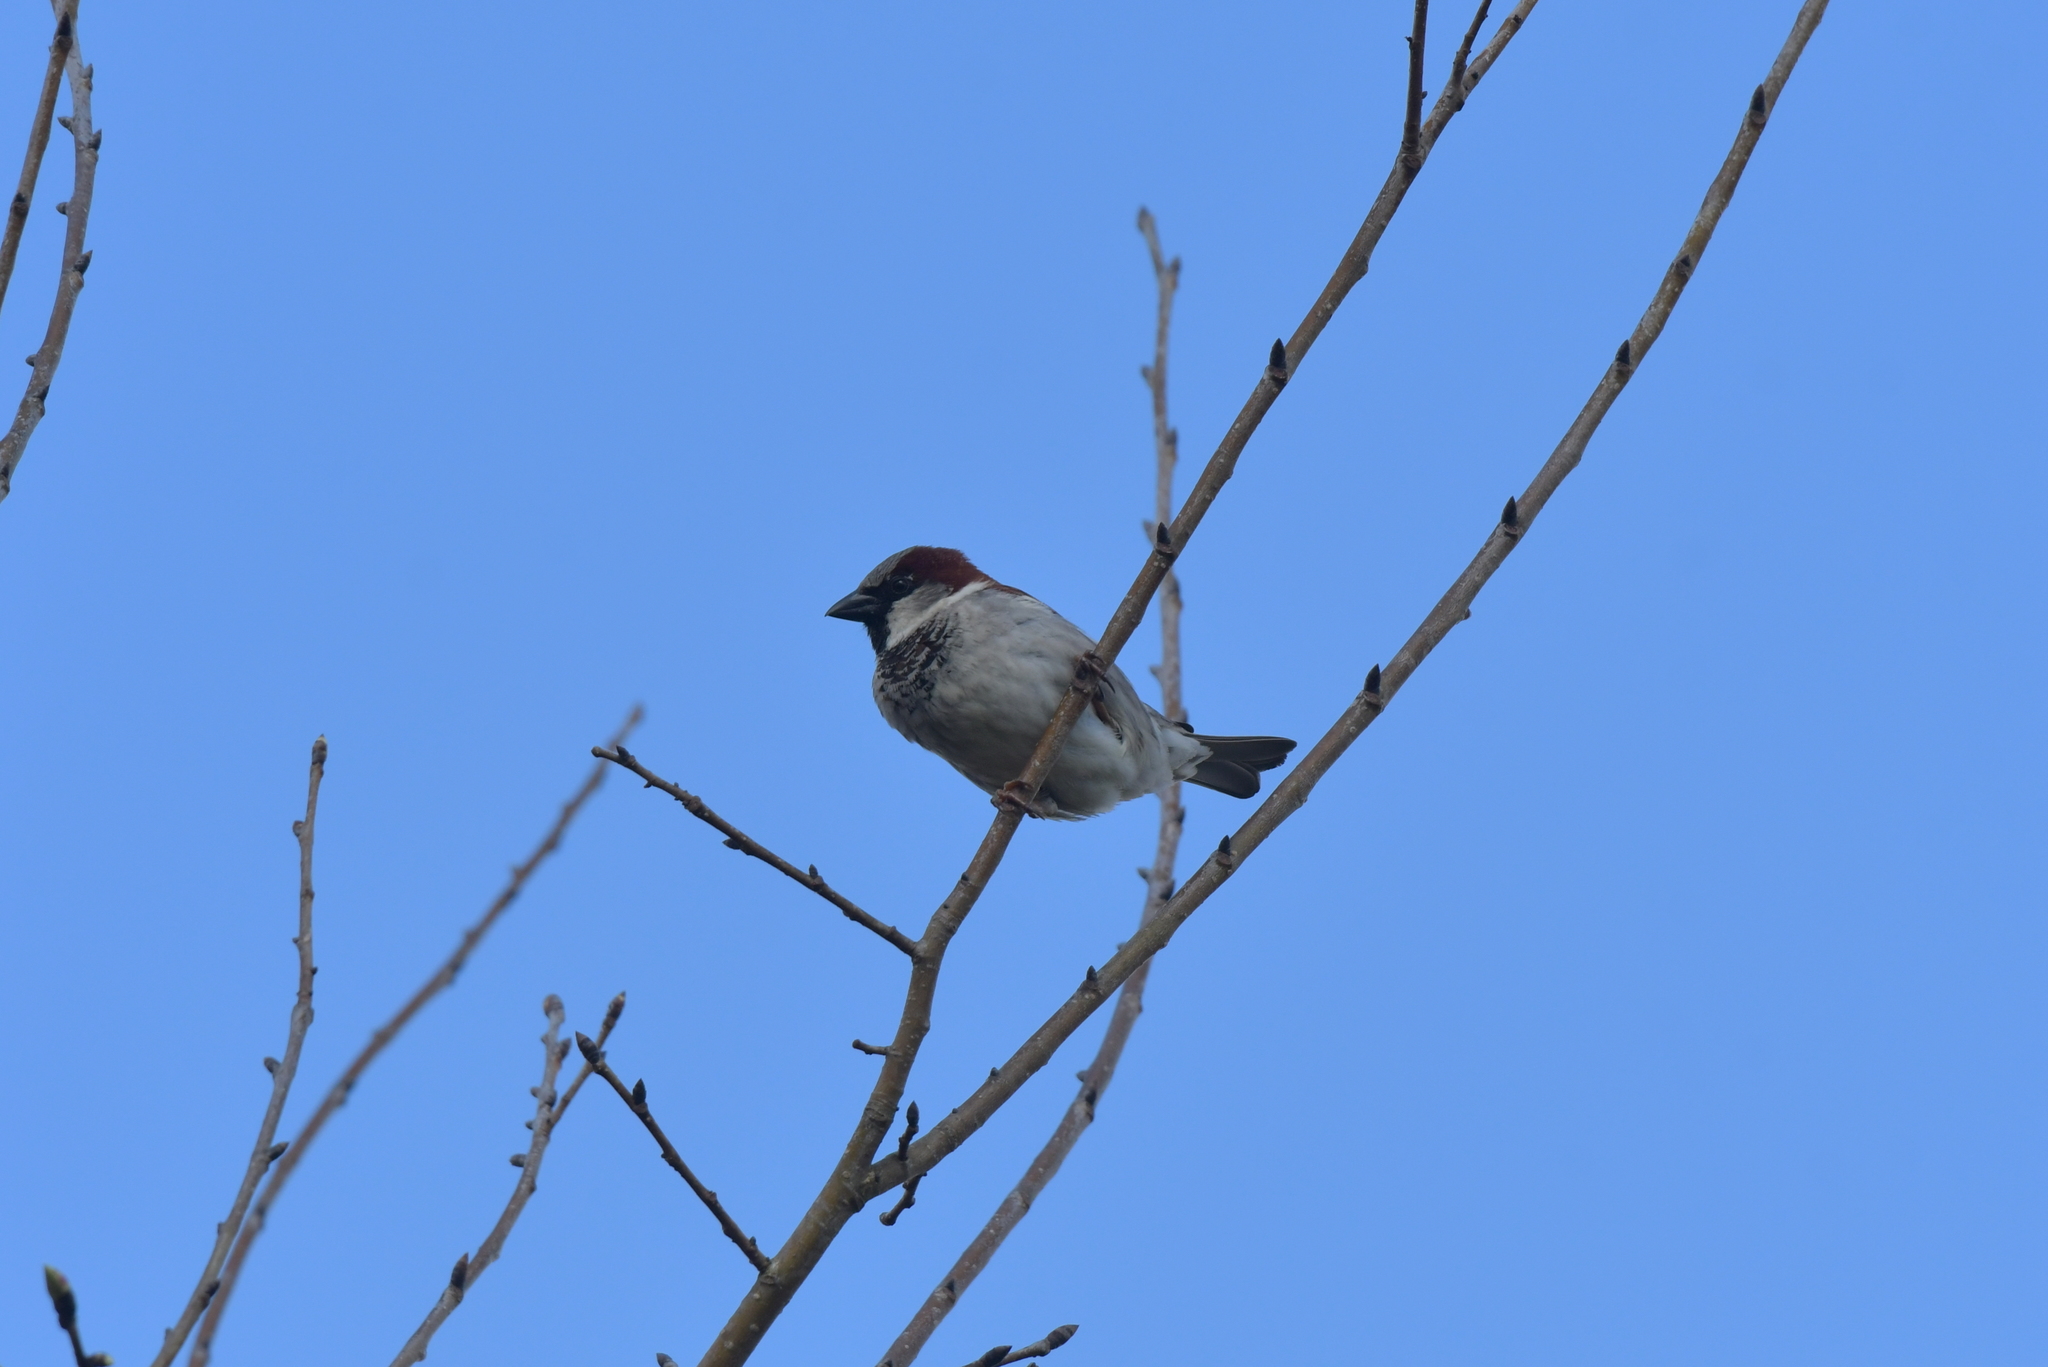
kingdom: Animalia
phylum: Chordata
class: Aves
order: Passeriformes
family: Passeridae
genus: Passer
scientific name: Passer domesticus
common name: House sparrow
